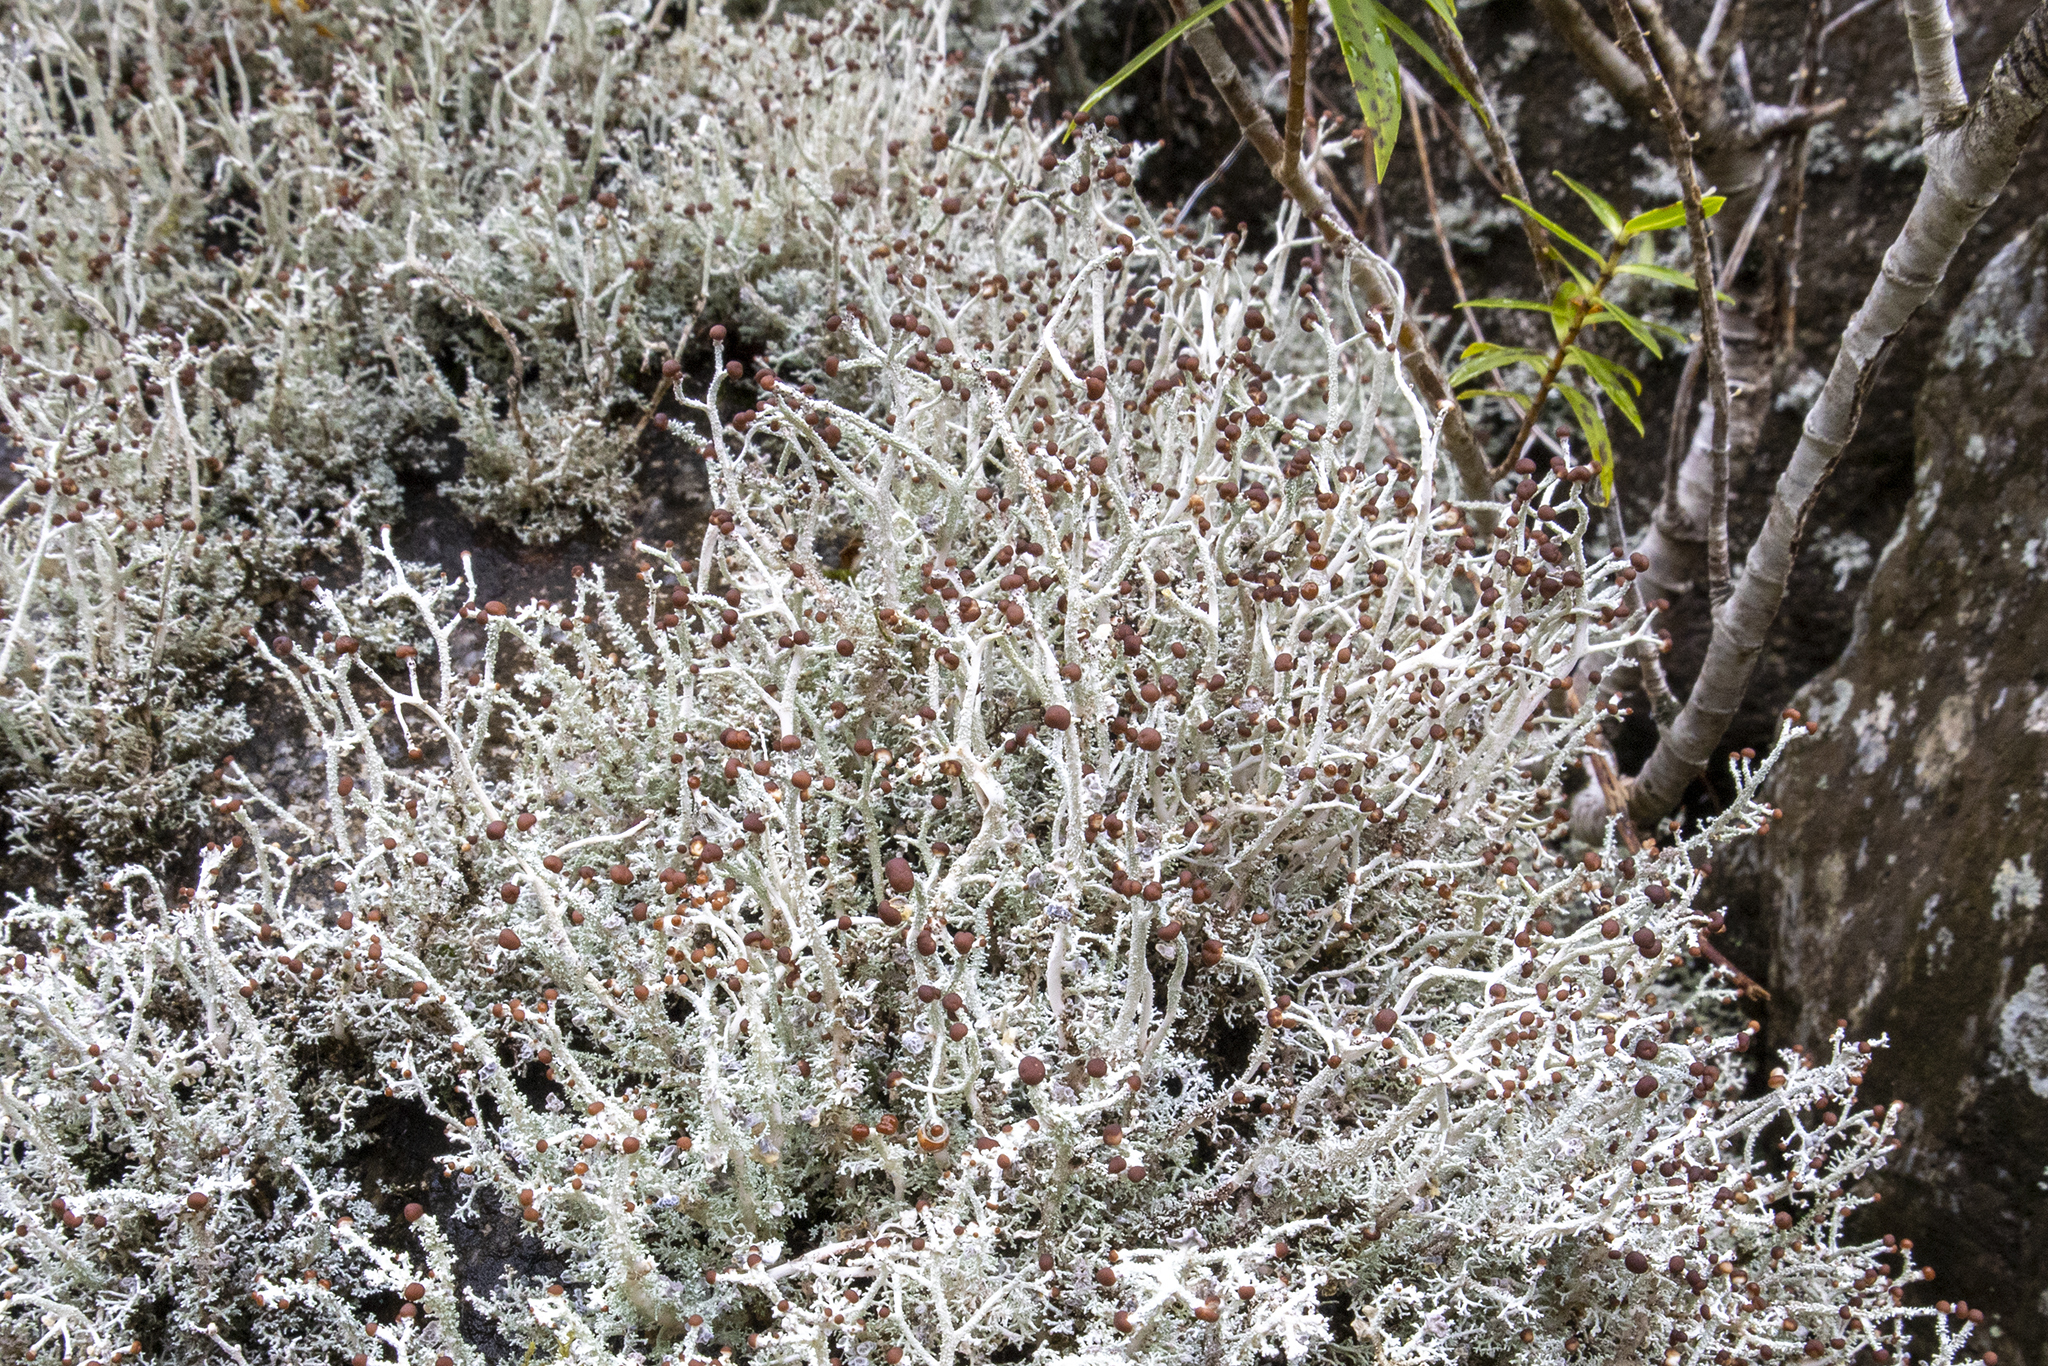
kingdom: Fungi
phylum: Ascomycota
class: Lecanoromycetes
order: Lecanorales
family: Stereocaulaceae
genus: Stereocaulon
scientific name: Stereocaulon ramulosum
